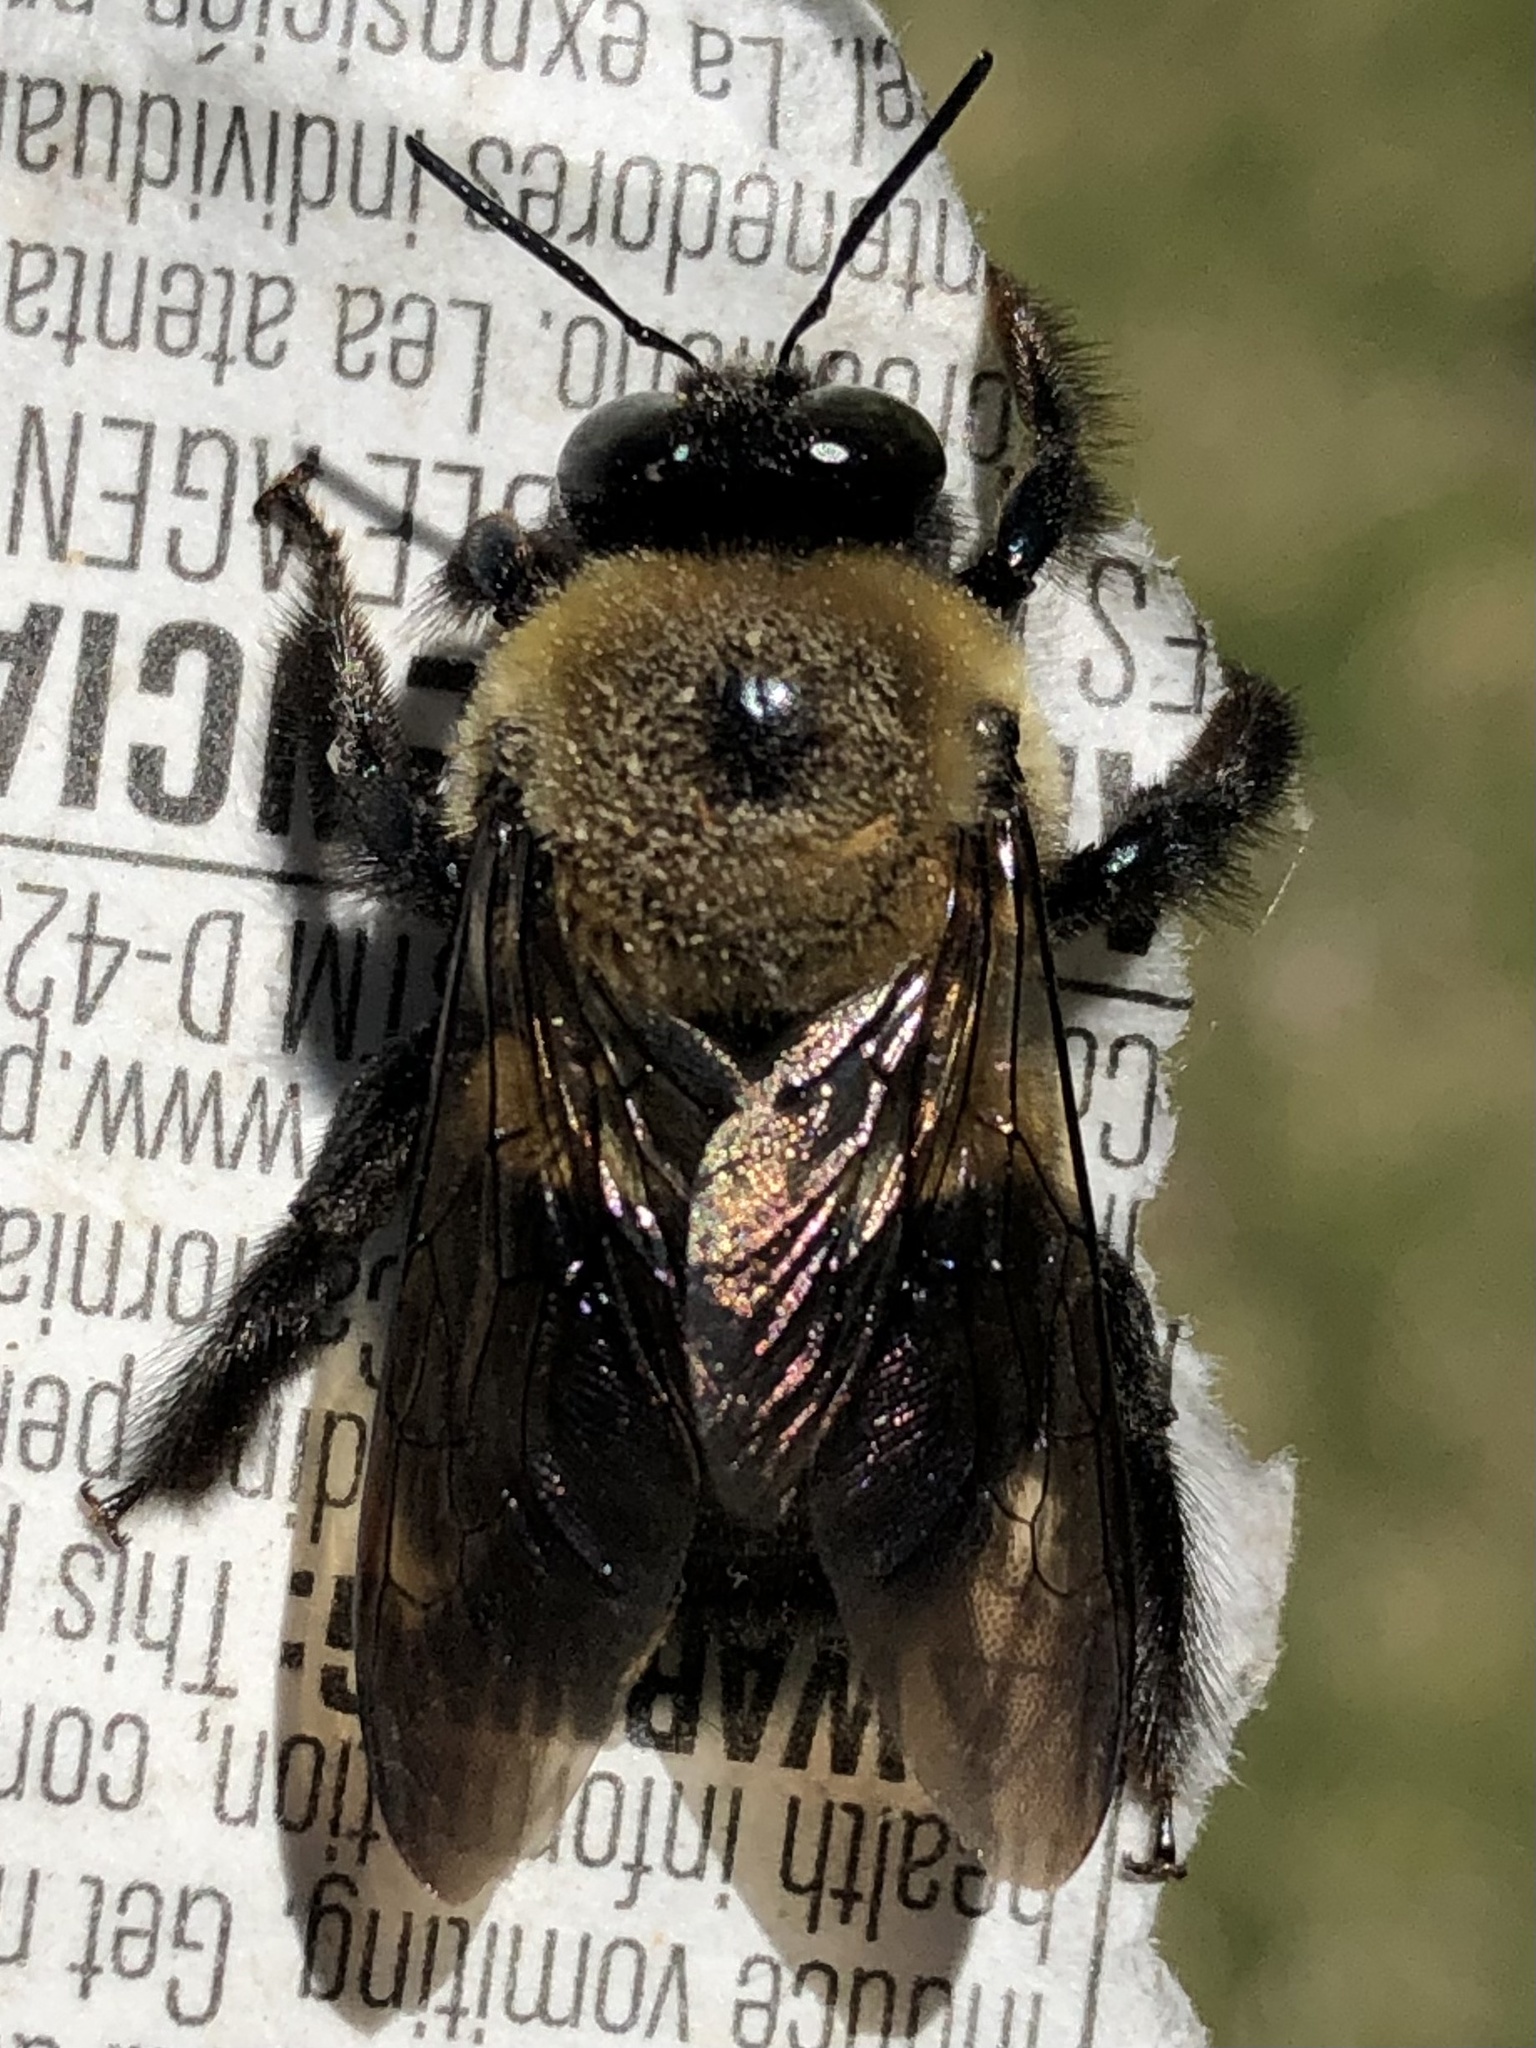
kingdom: Animalia
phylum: Arthropoda
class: Insecta
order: Hymenoptera
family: Apidae
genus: Xylocopa
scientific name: Xylocopa virginica
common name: Carpenter bee
